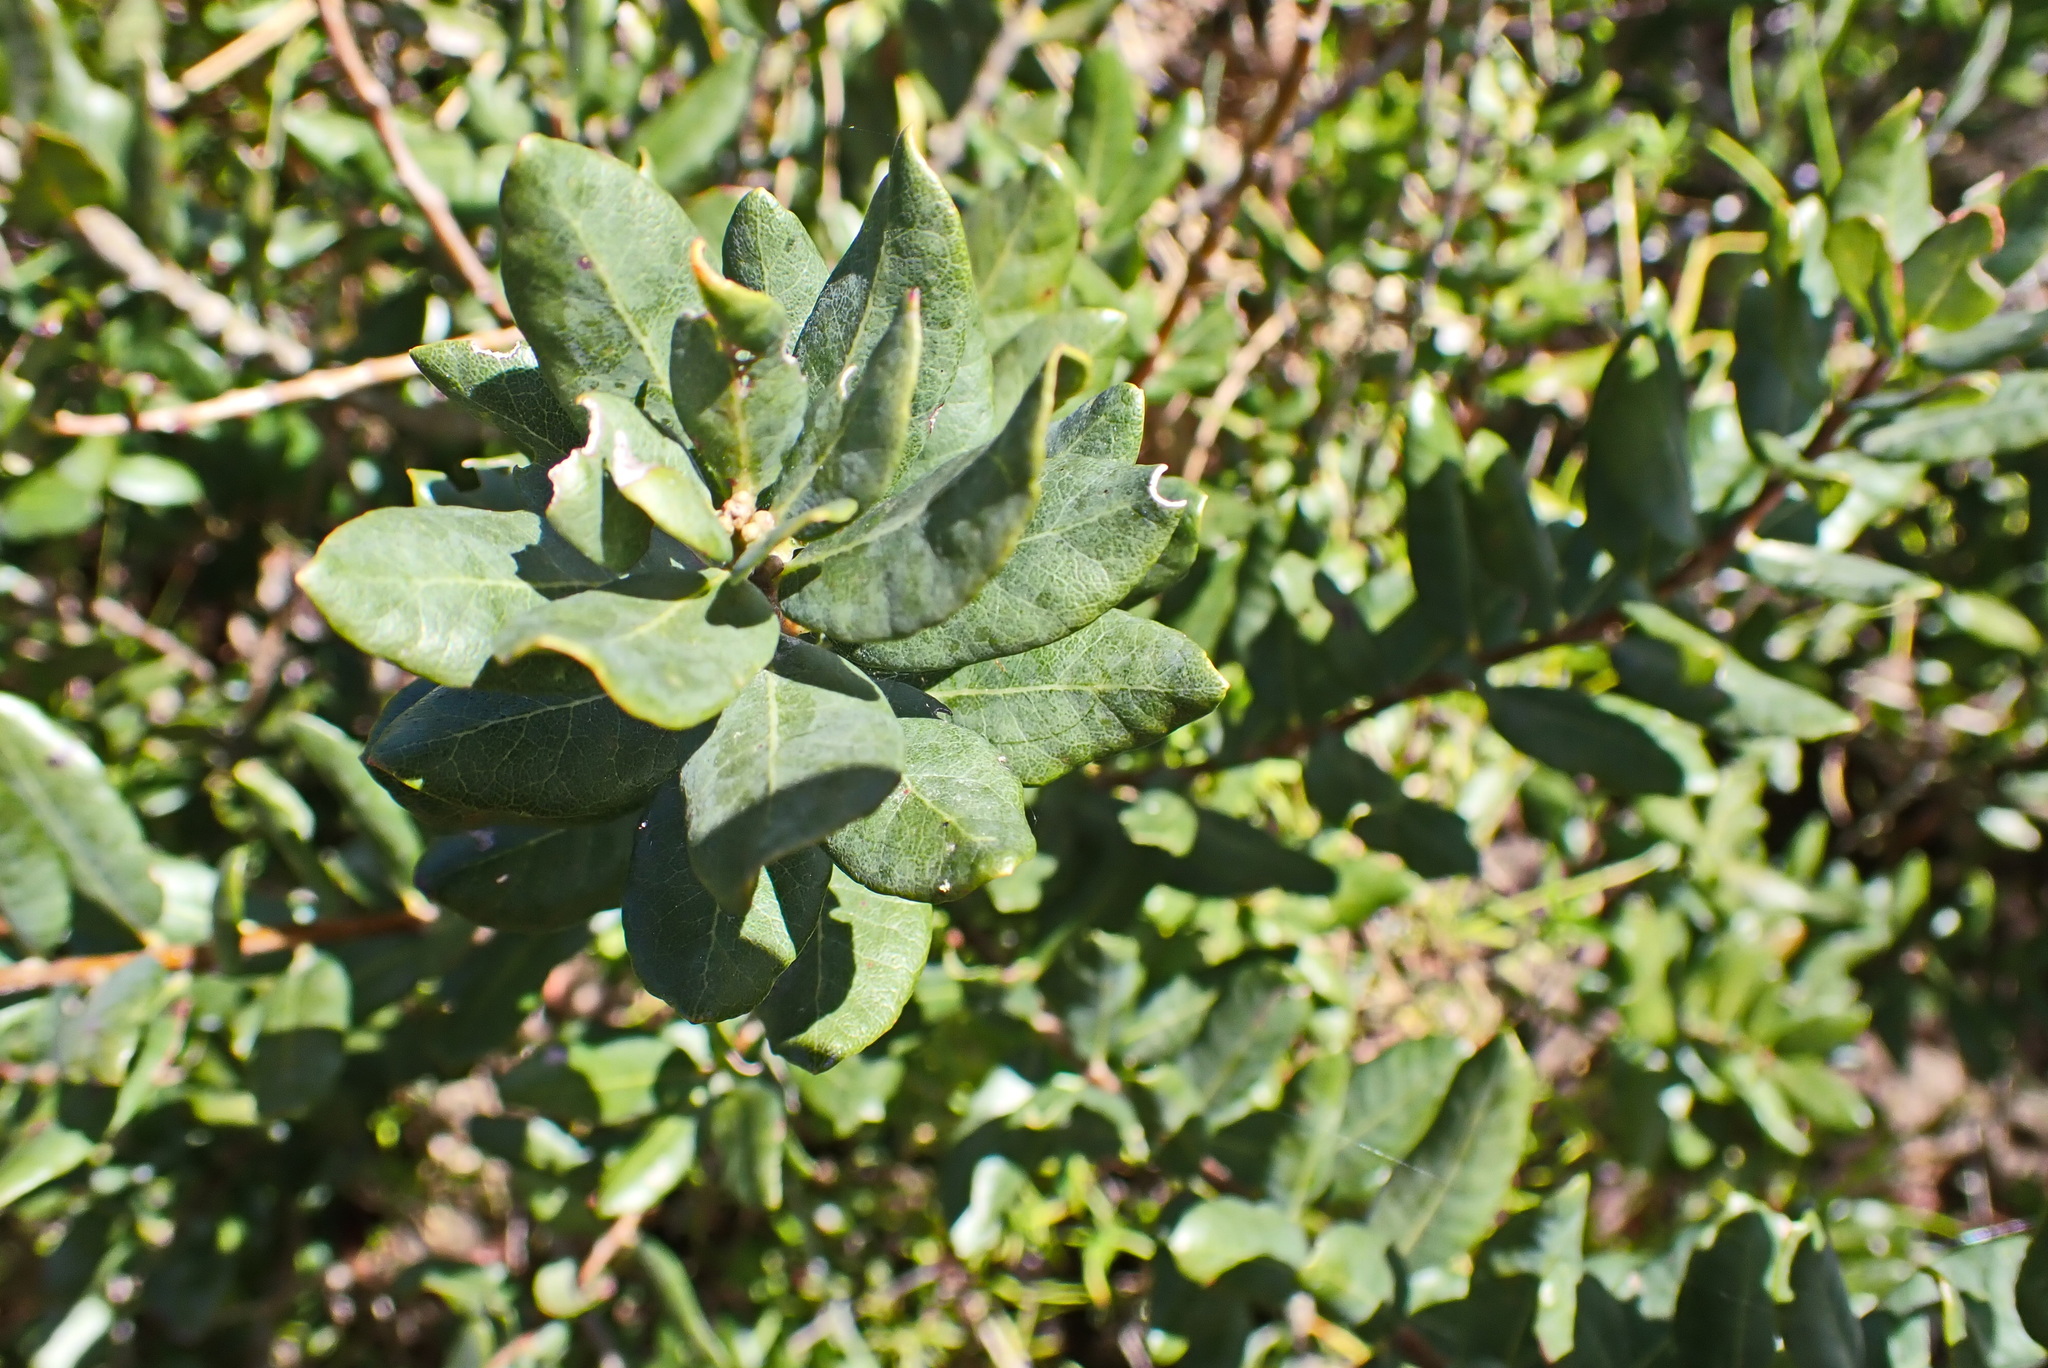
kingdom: Plantae
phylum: Tracheophyta
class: Magnoliopsida
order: Fagales
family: Myricaceae
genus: Morella
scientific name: Morella humilis
